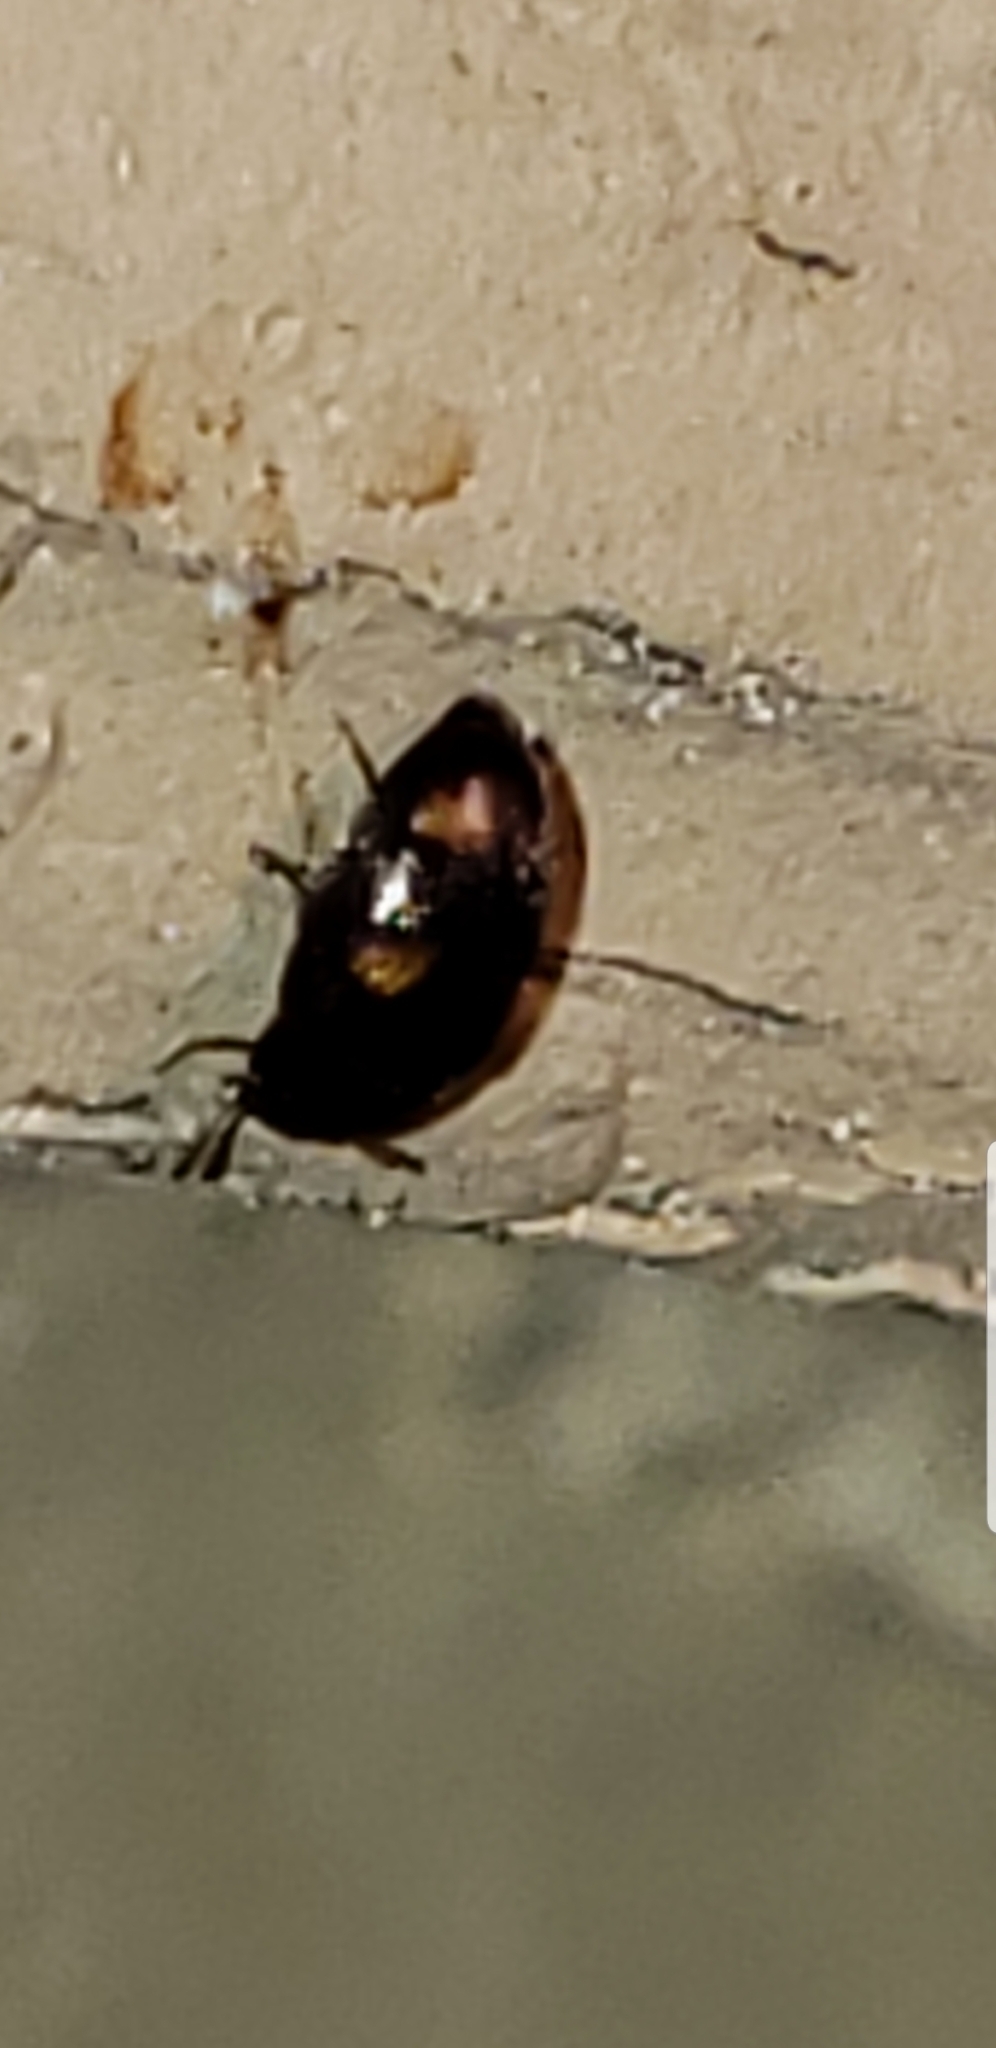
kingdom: Animalia
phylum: Arthropoda
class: Insecta
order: Coleoptera
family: Tetratomidae
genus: Holostrophus
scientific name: Holostrophus bifasciatus
